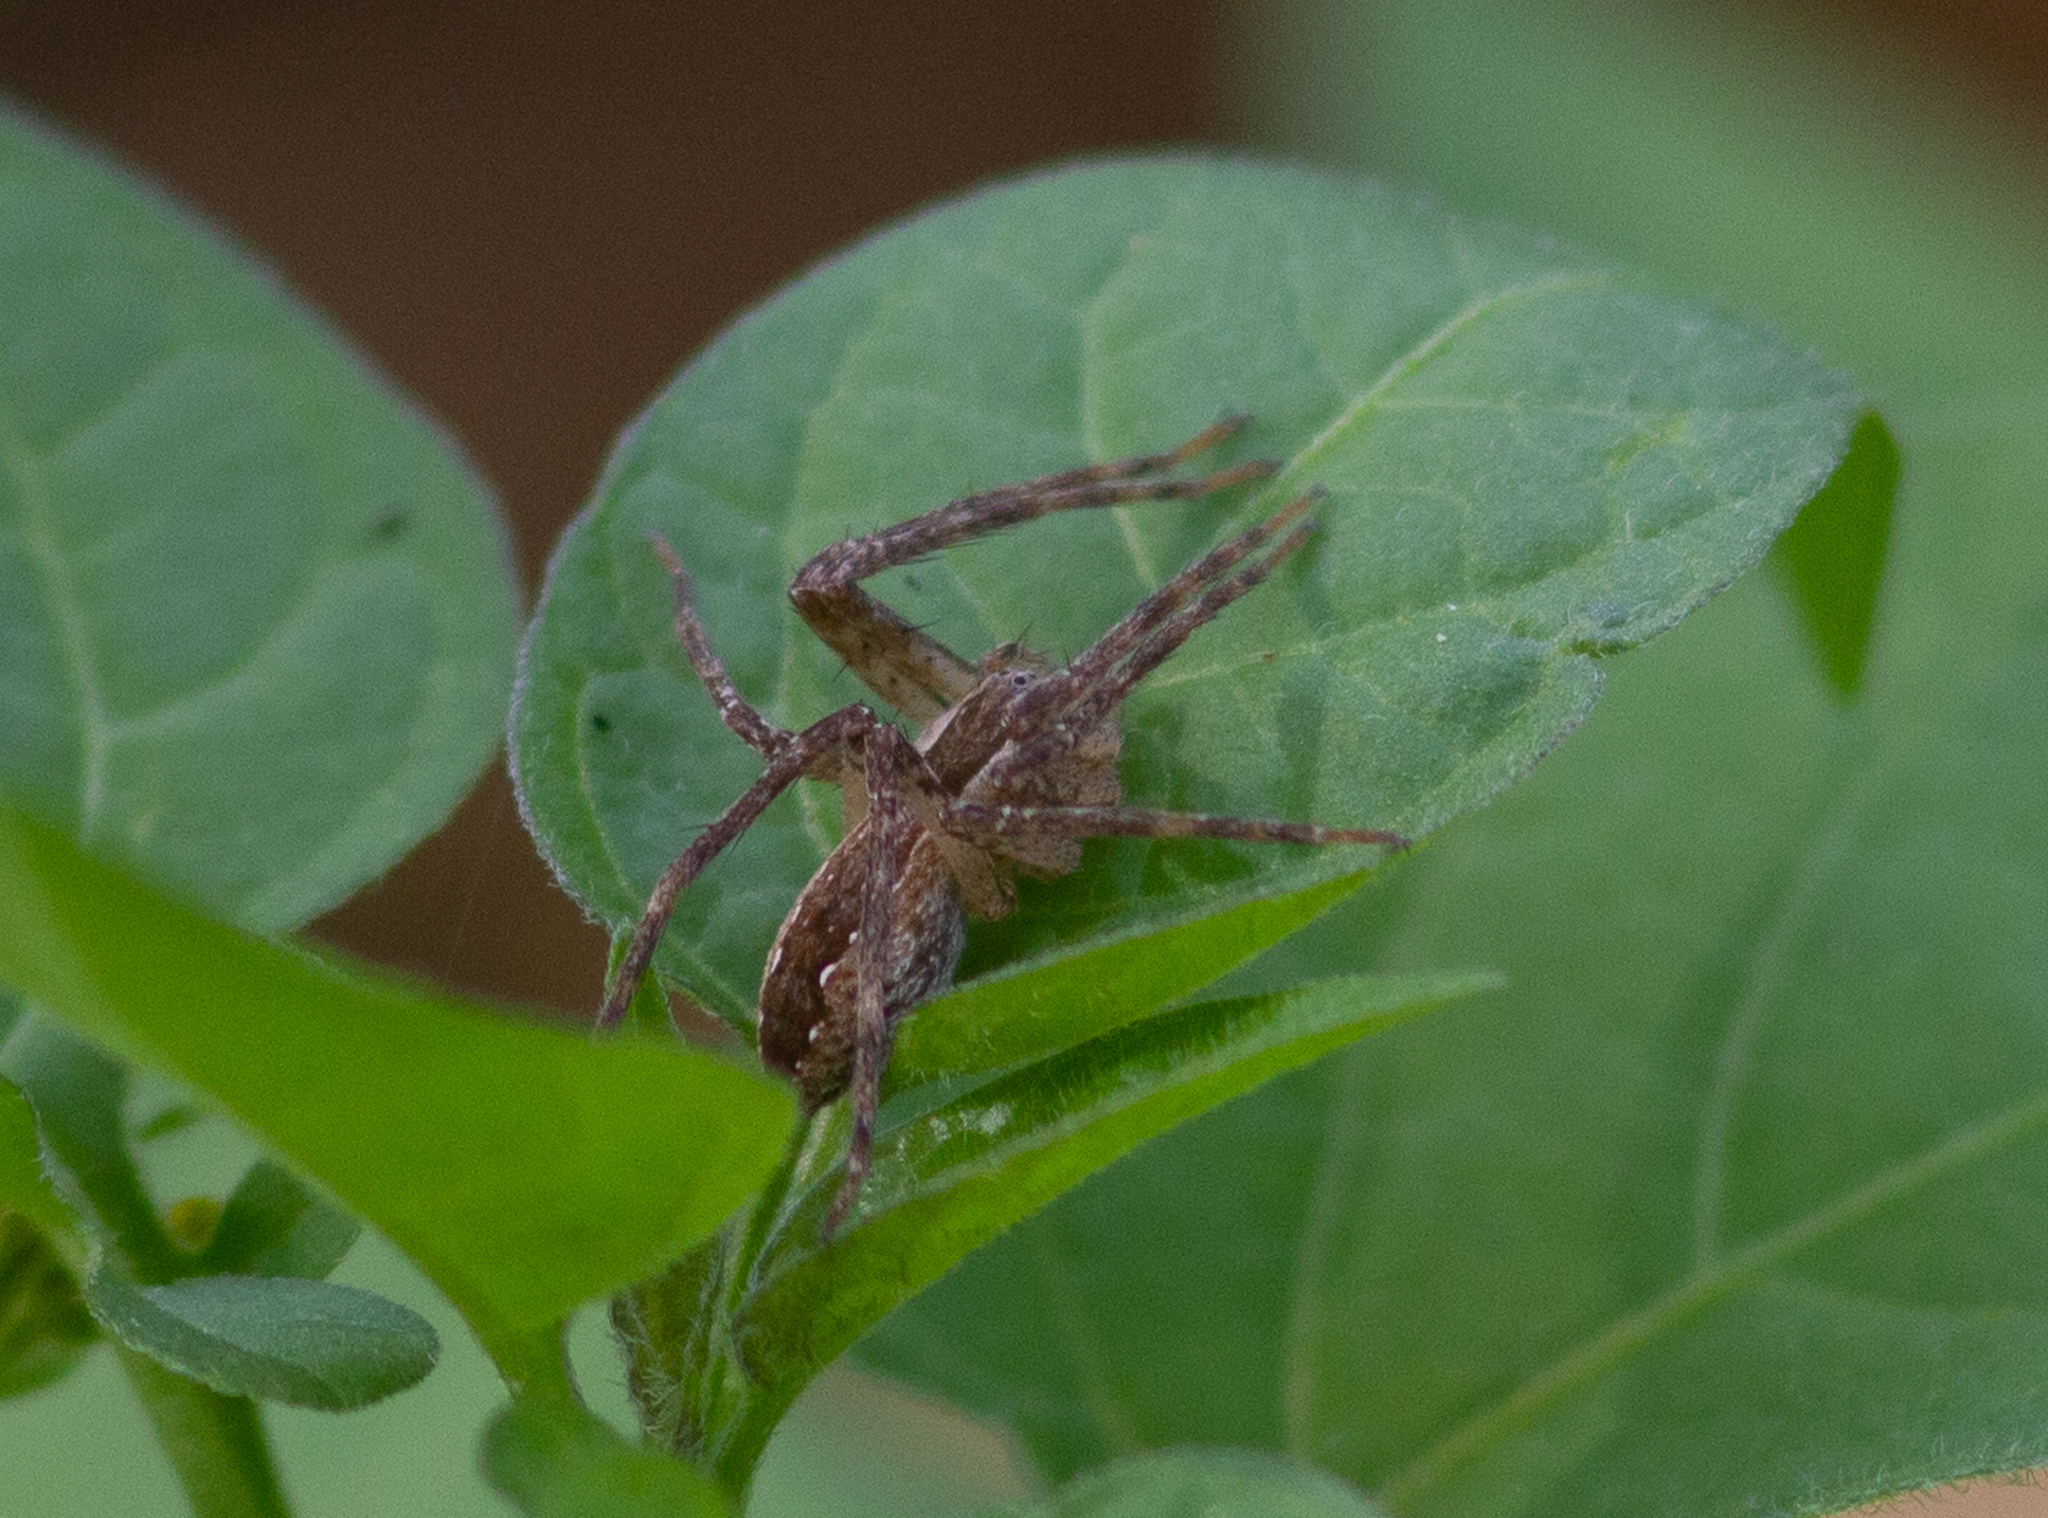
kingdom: Animalia
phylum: Arthropoda
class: Arachnida
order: Araneae
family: Pisauridae
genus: Pisaurina
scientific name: Pisaurina mira
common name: American nursery web spider
